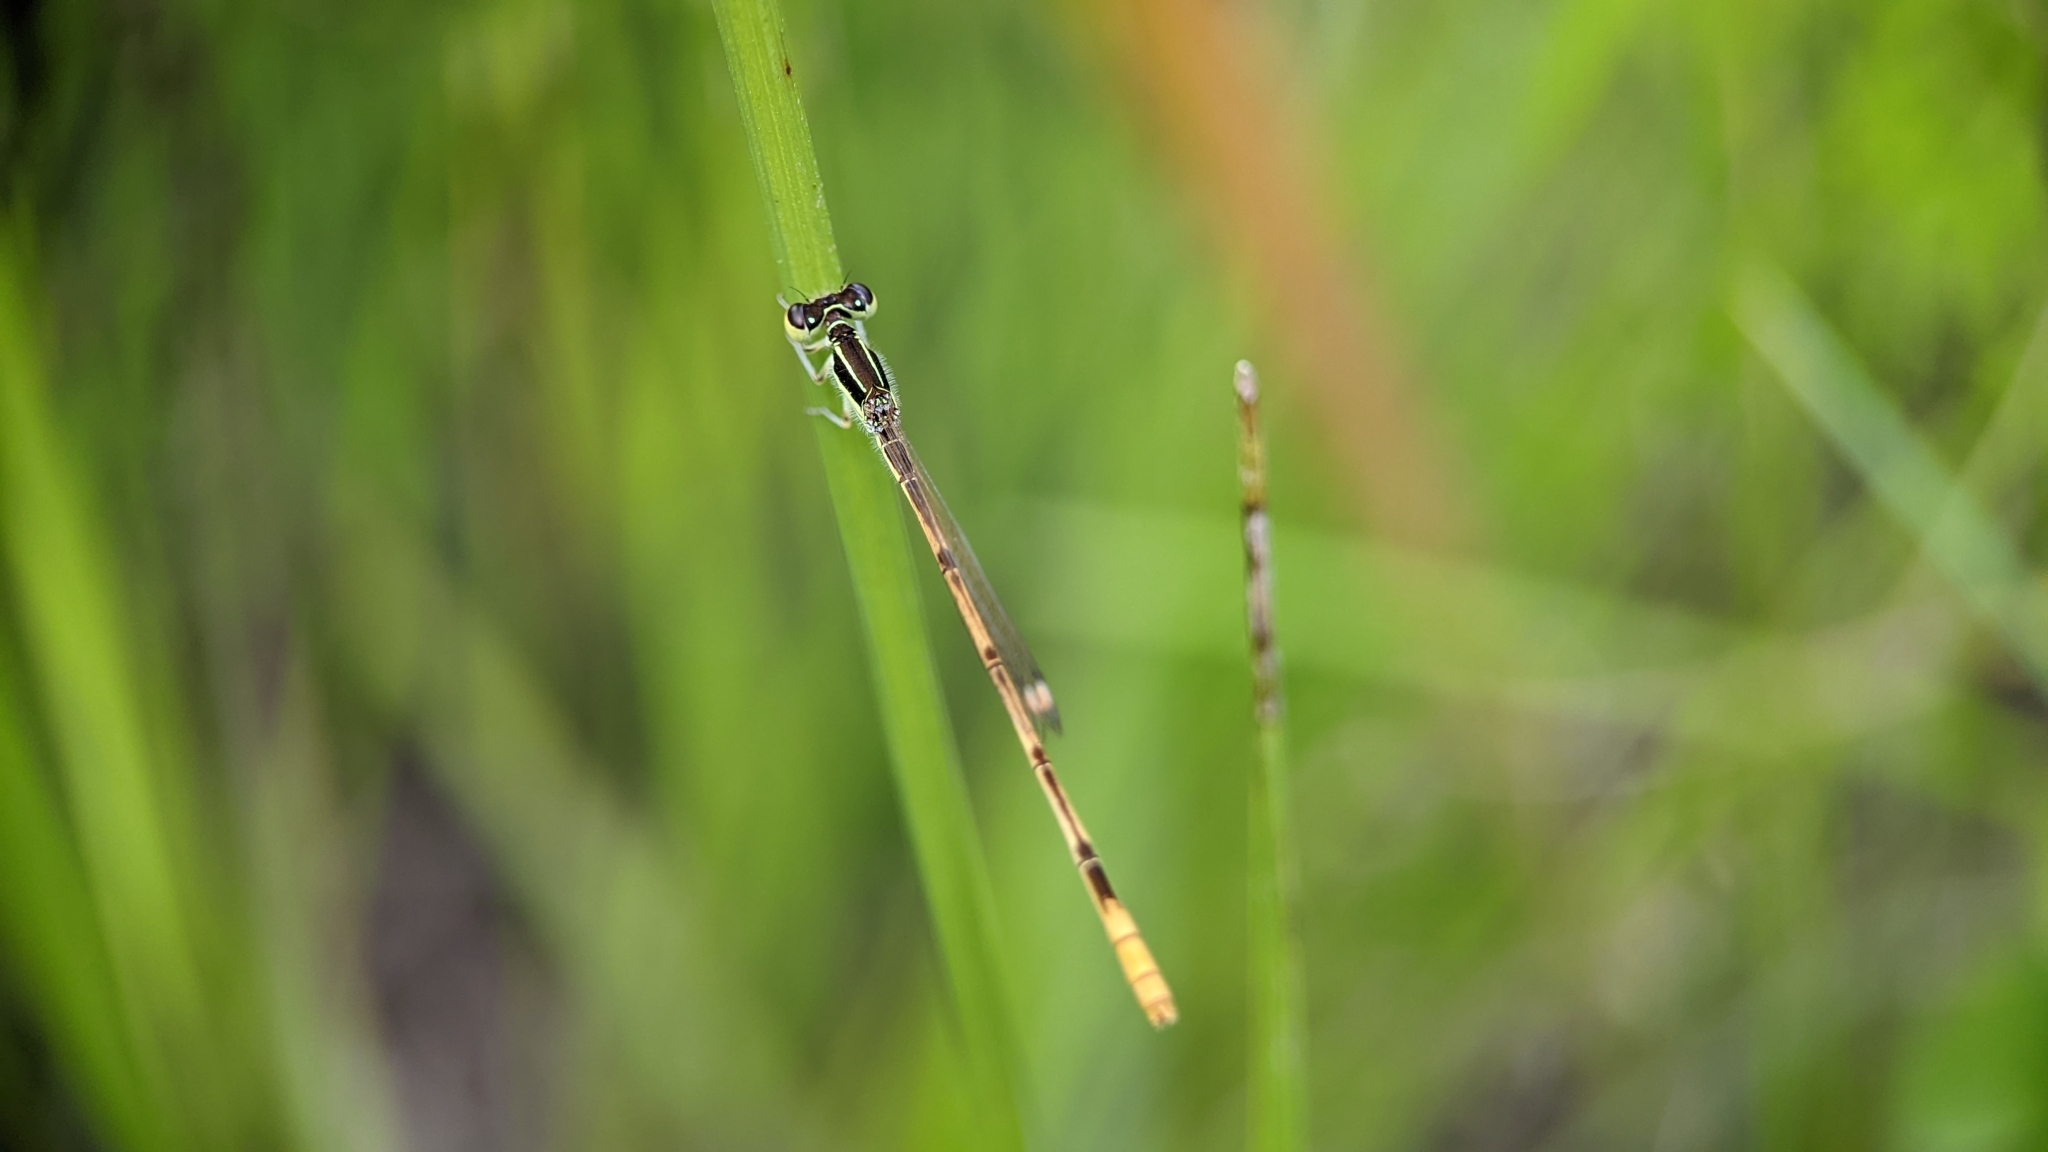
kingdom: Animalia
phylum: Arthropoda
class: Insecta
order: Odonata
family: Coenagrionidae
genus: Ischnura
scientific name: Ischnura hastata
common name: Citrine forktail
